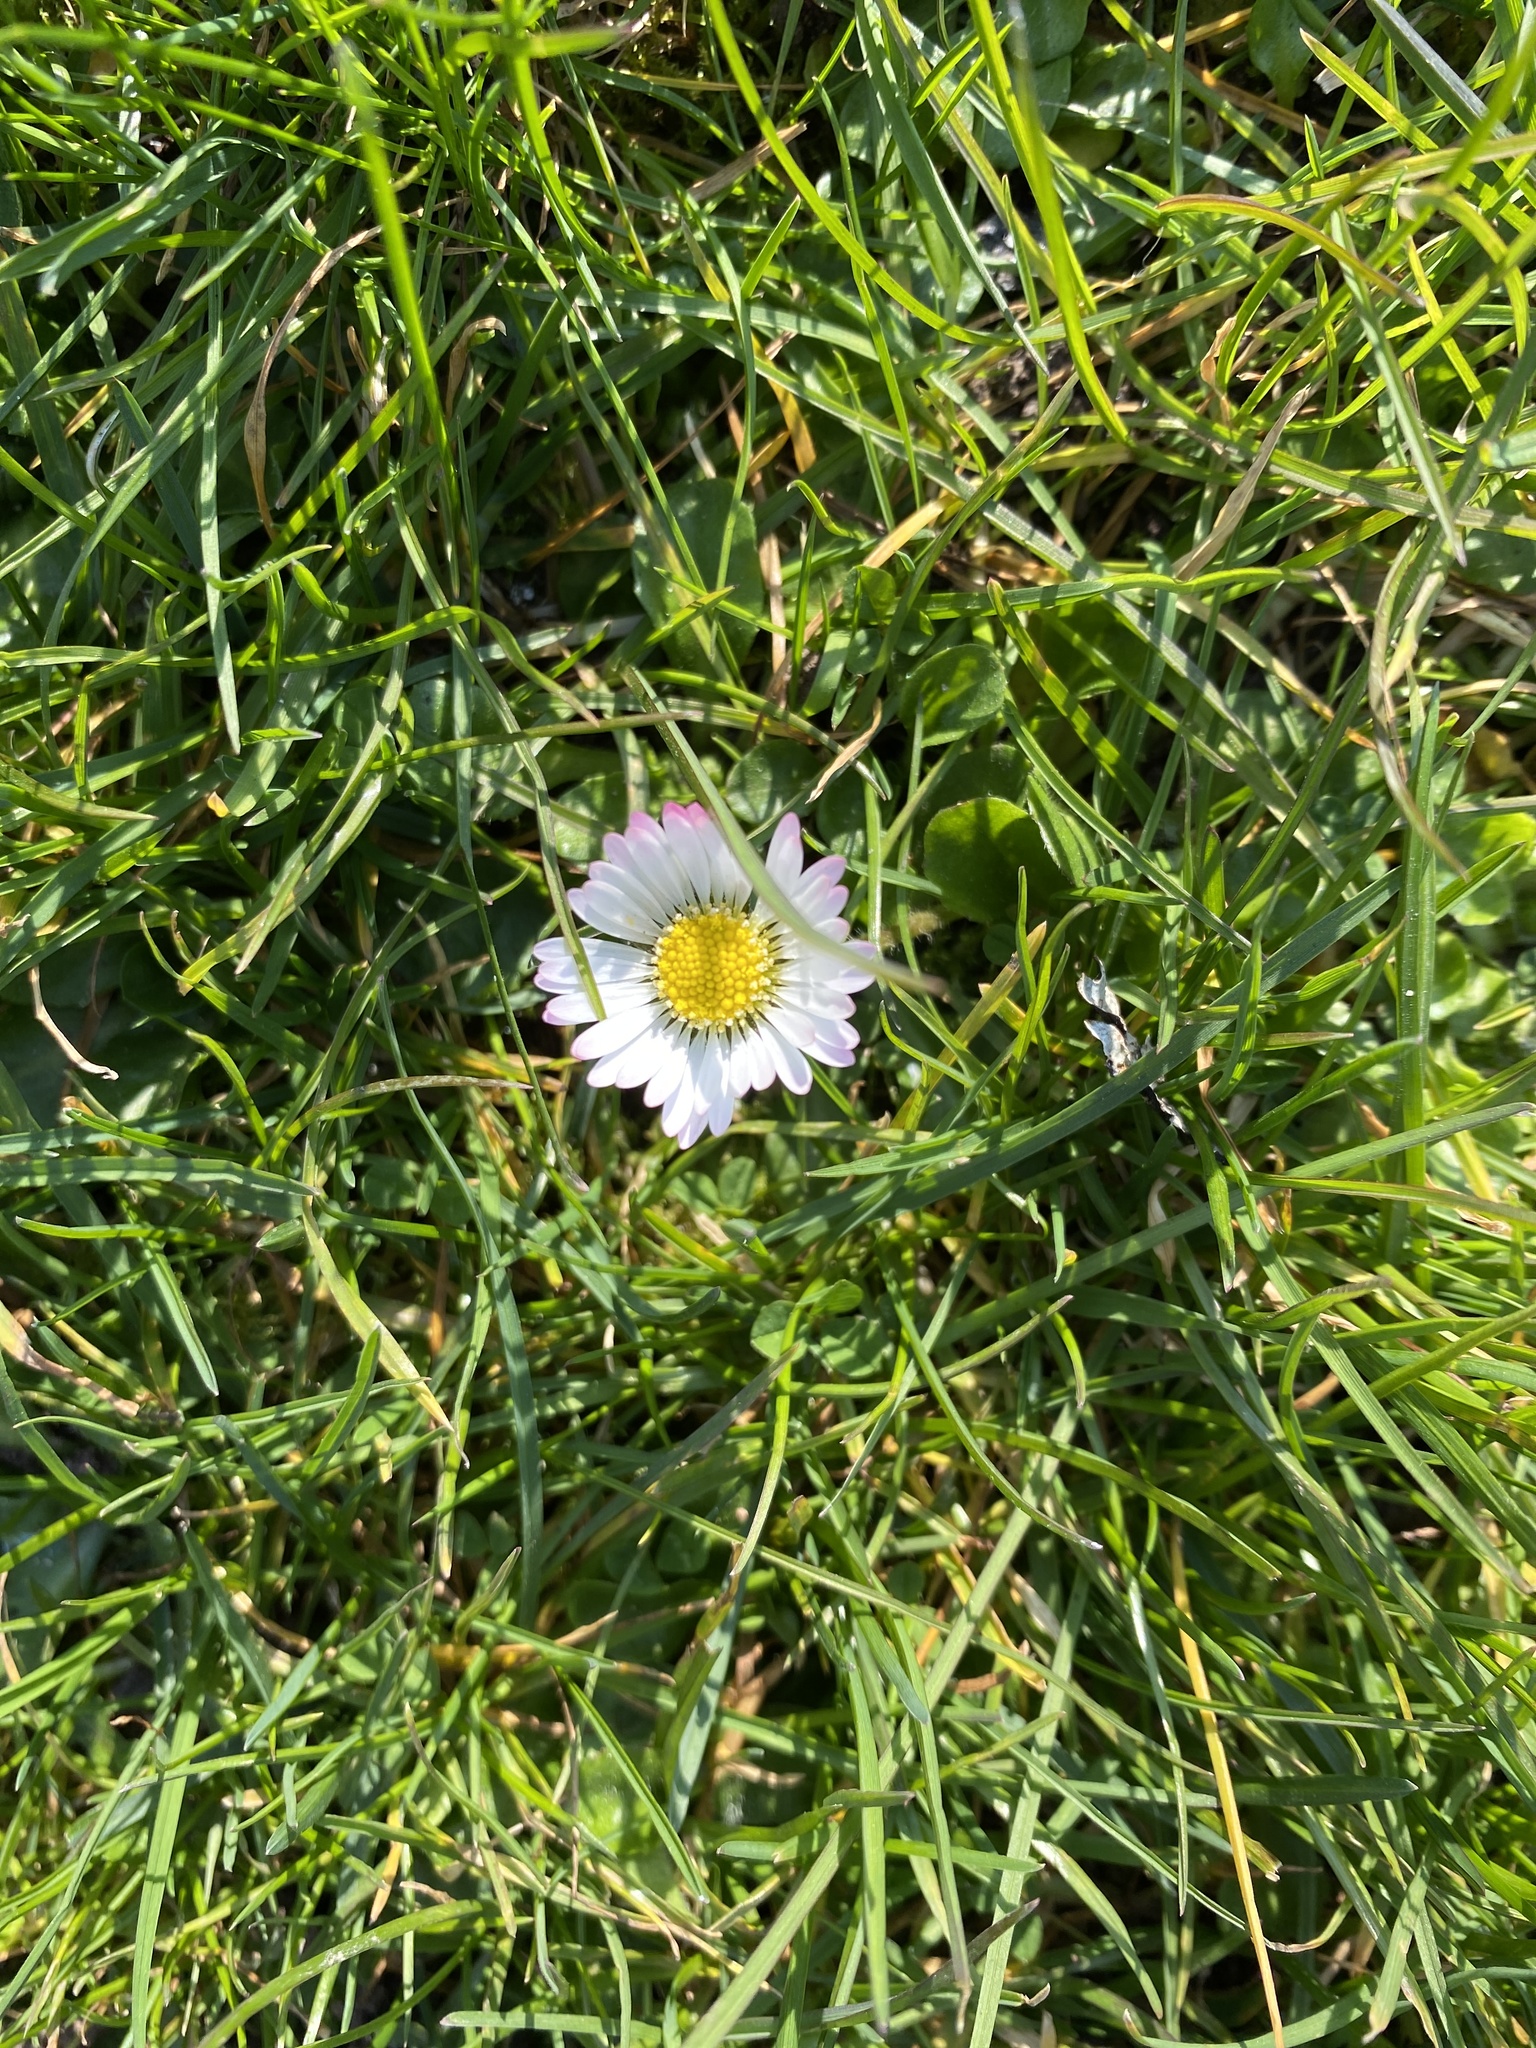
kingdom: Plantae
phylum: Tracheophyta
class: Magnoliopsida
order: Asterales
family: Asteraceae
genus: Bellis
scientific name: Bellis perennis
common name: Lawndaisy
